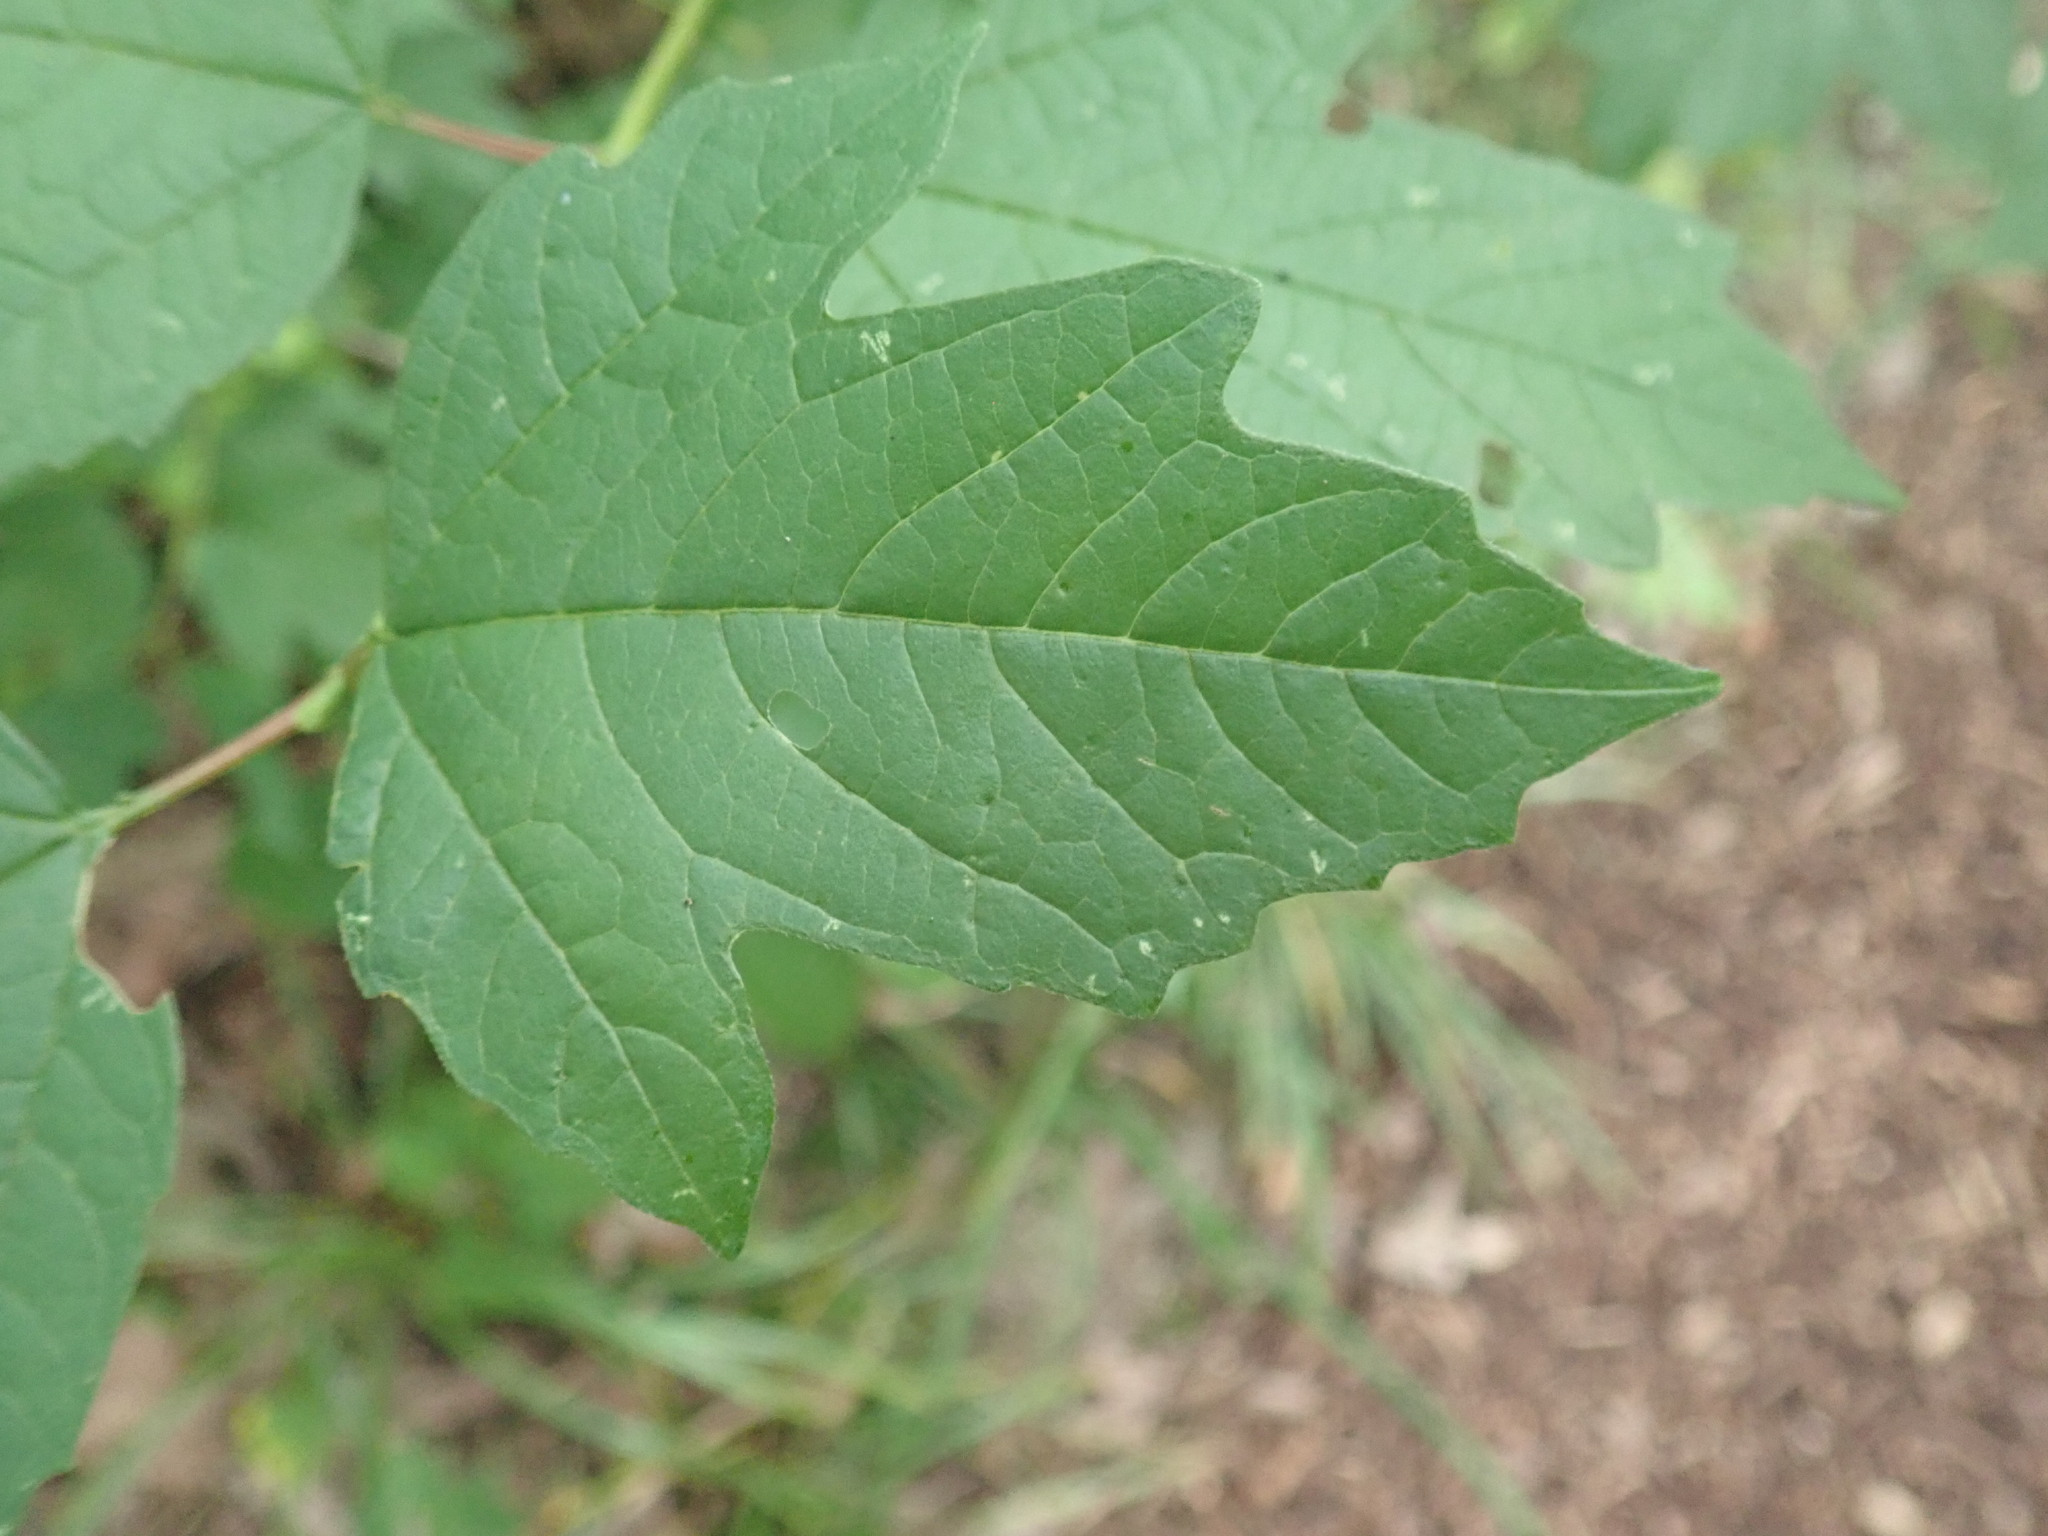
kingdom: Plantae
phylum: Tracheophyta
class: Magnoliopsida
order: Dipsacales
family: Viburnaceae
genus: Viburnum
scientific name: Viburnum opulus
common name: Guelder-rose
